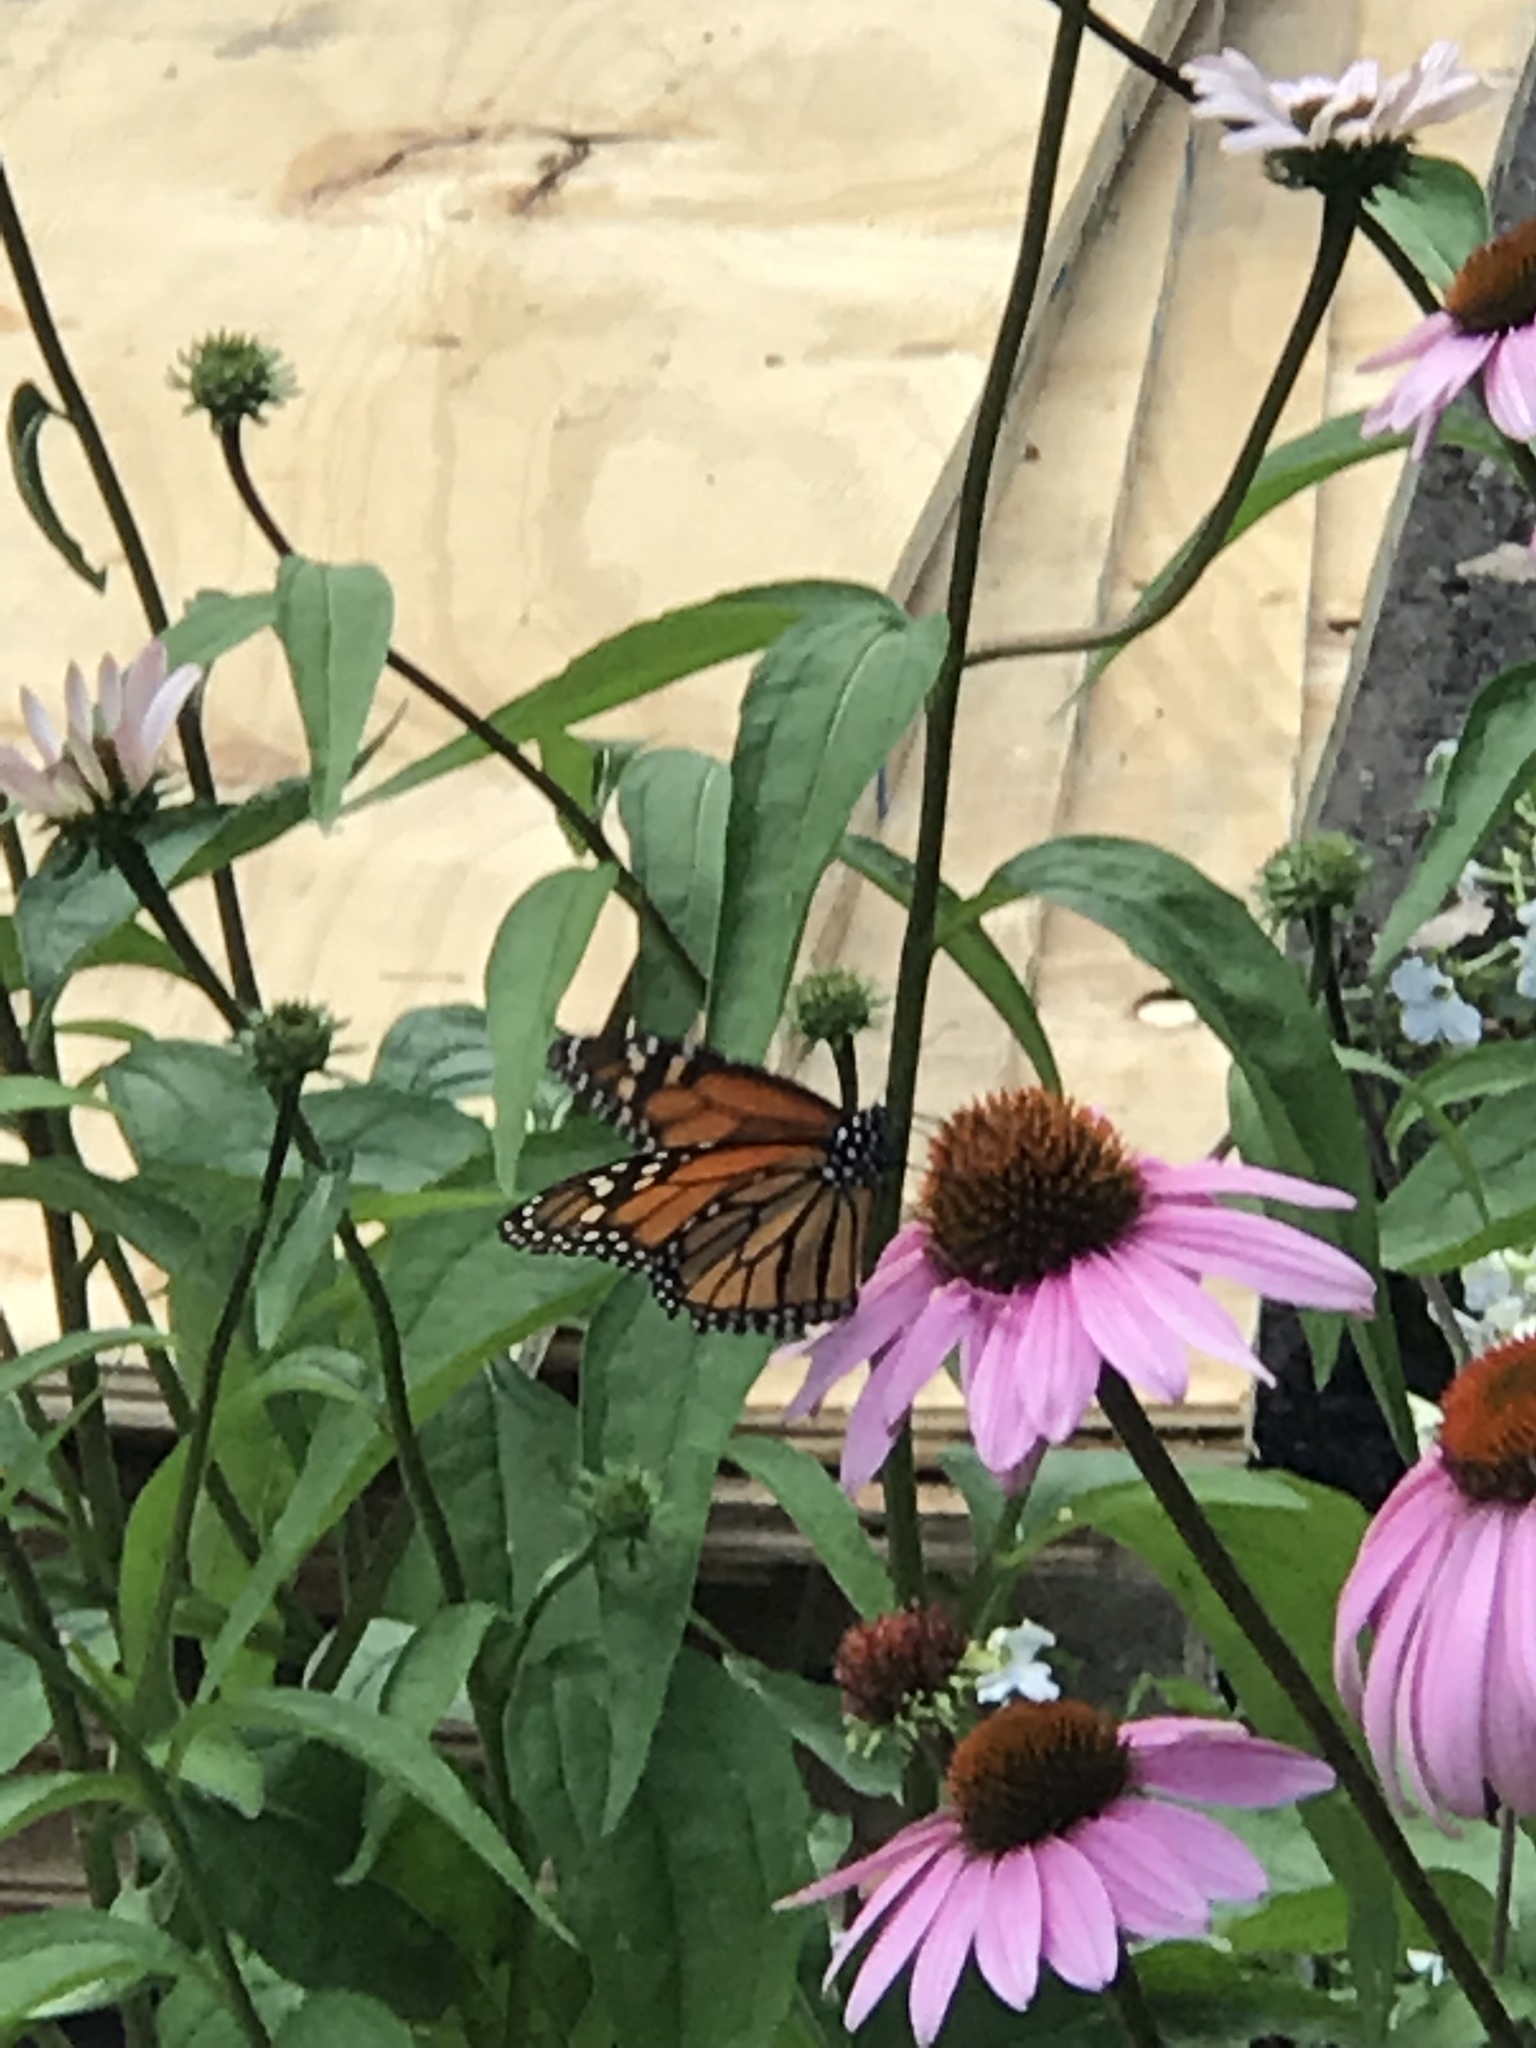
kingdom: Animalia
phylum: Arthropoda
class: Insecta
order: Lepidoptera
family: Nymphalidae
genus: Danaus
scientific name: Danaus plexippus
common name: Monarch
